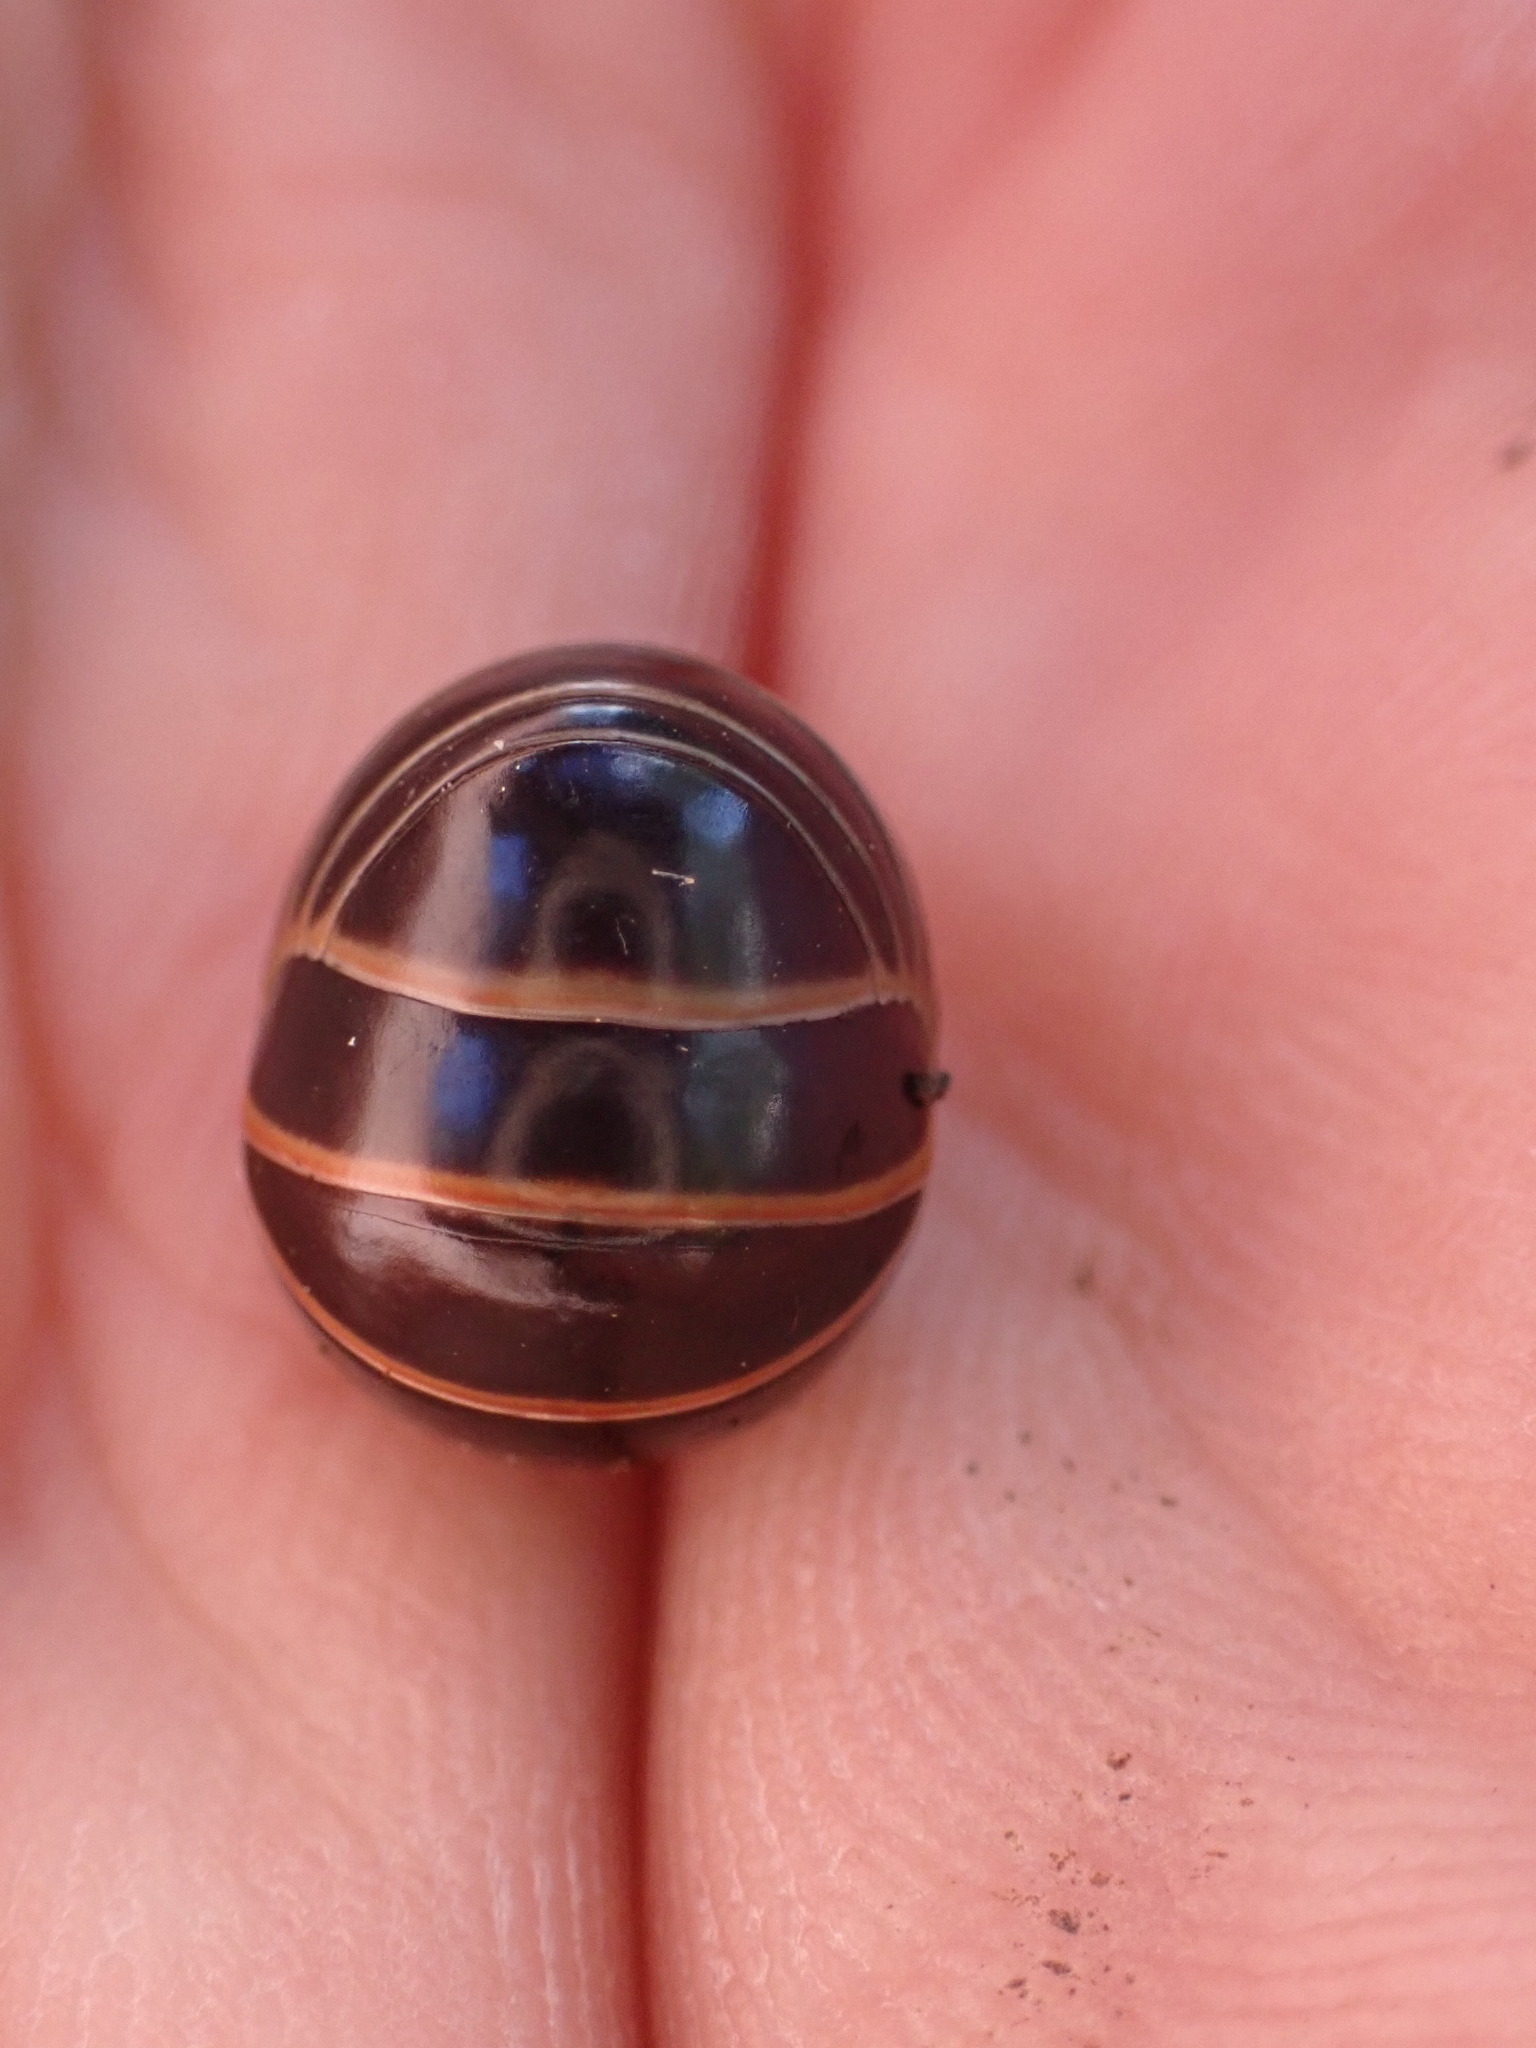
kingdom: Animalia
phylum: Arthropoda
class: Diplopoda
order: Glomerida
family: Glomeridae
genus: Glomeris
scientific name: Glomeris marginata
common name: Bordered pill millipede
